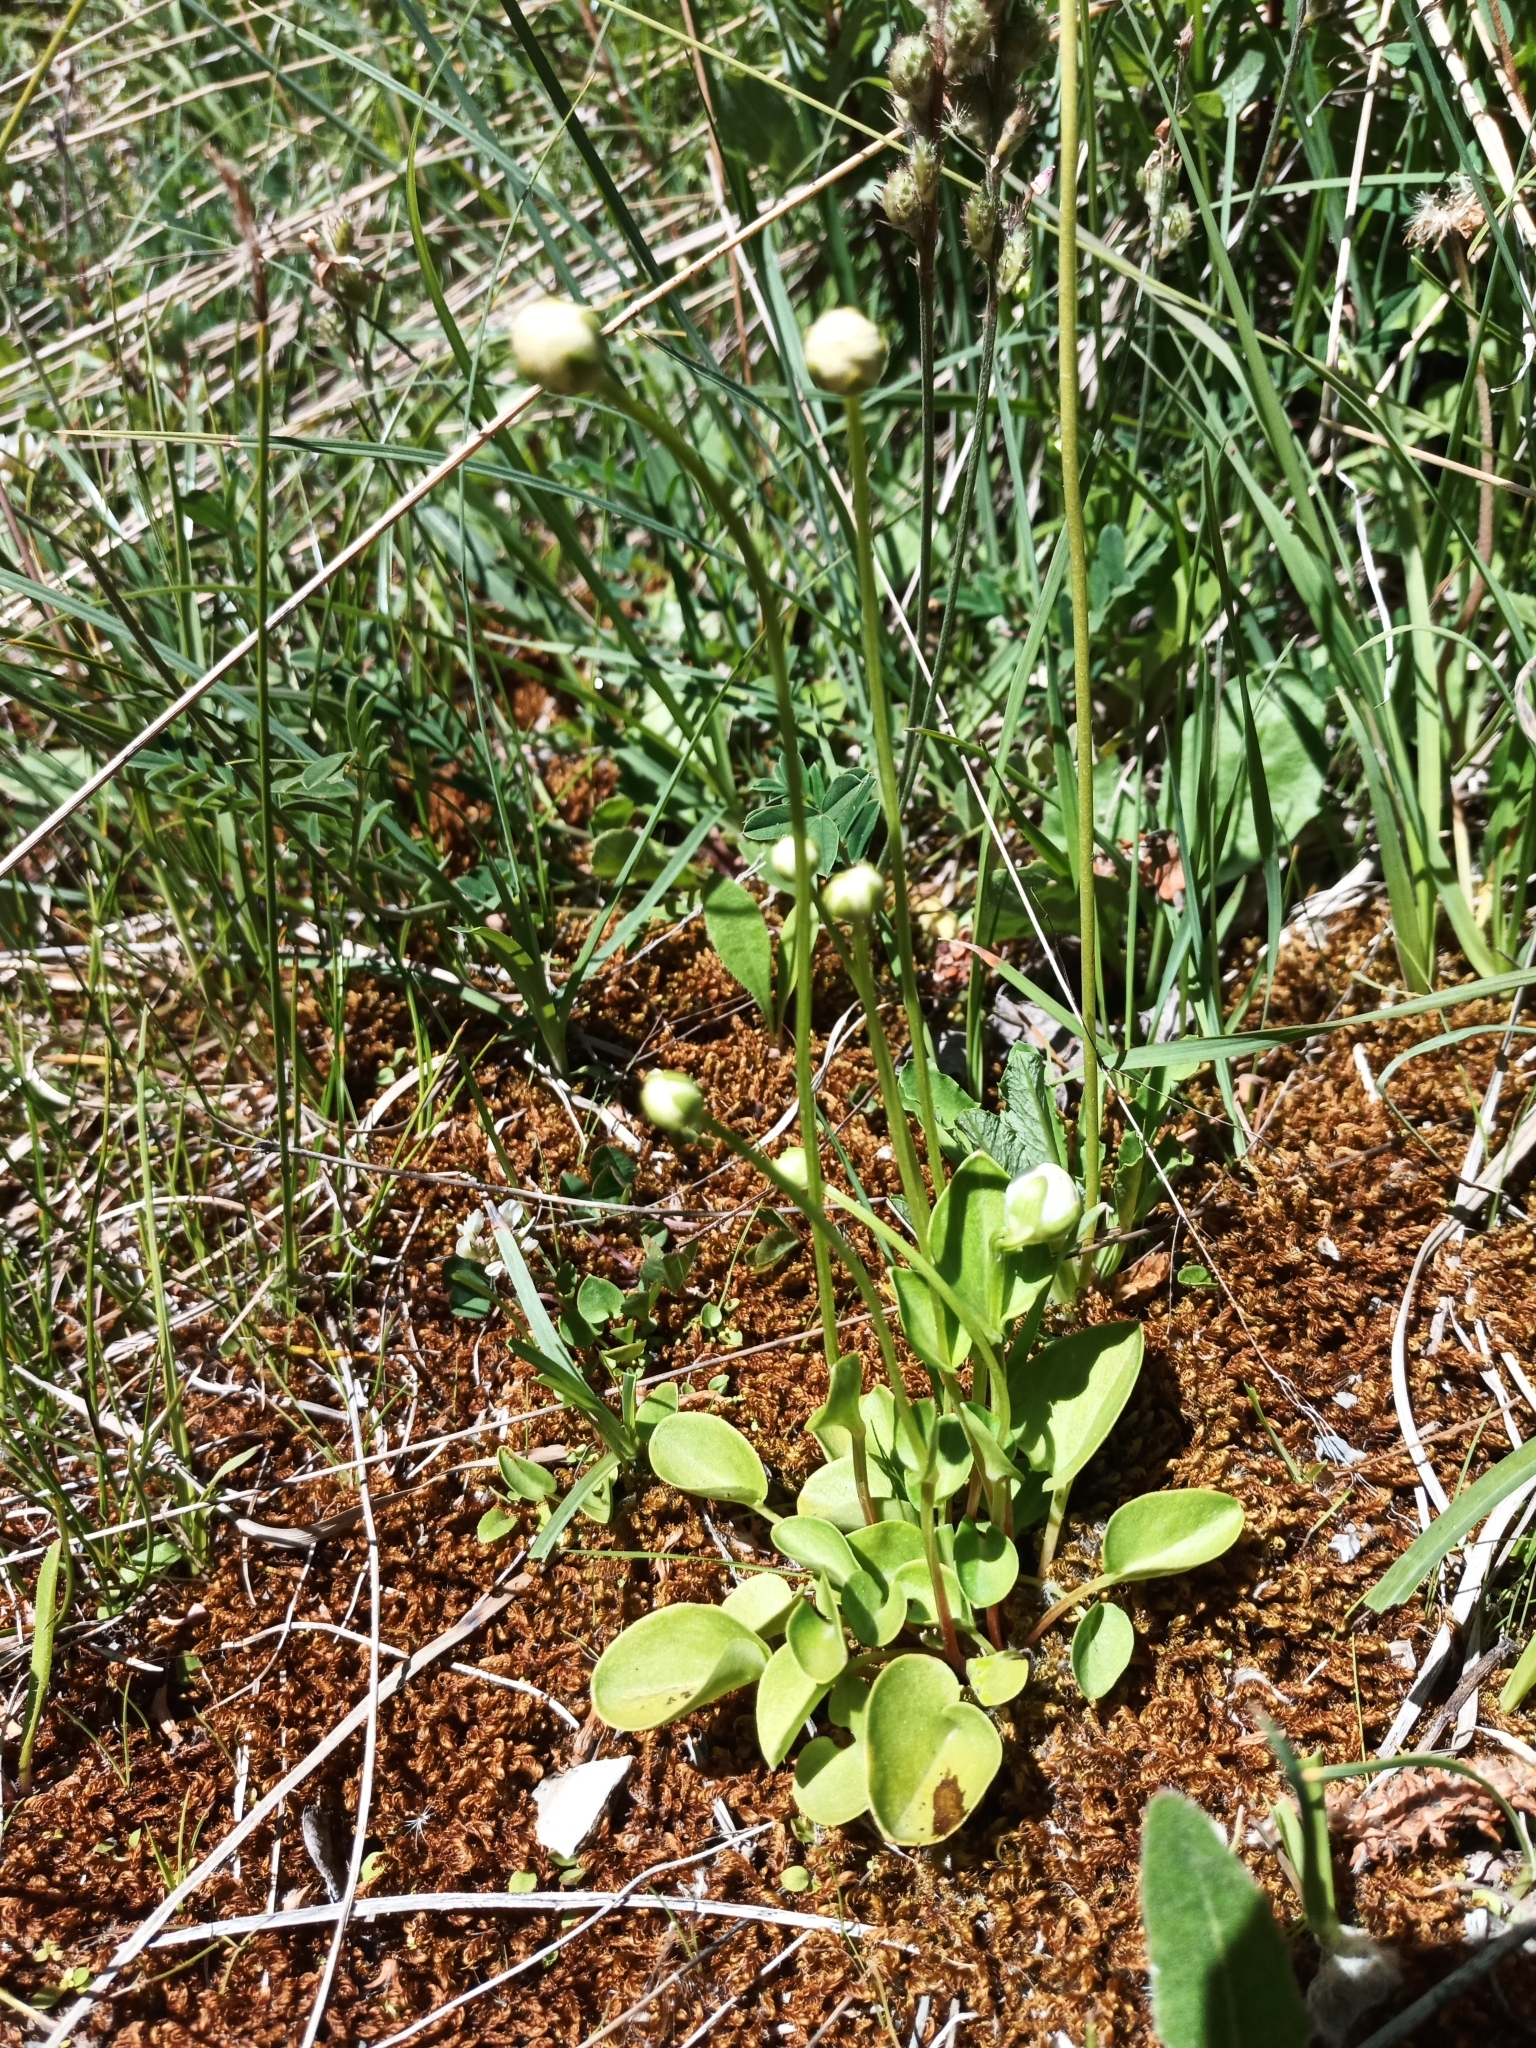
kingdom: Plantae
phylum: Tracheophyta
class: Magnoliopsida
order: Celastrales
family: Parnassiaceae
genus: Parnassia
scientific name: Parnassia palustris
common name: Grass-of-parnassus
